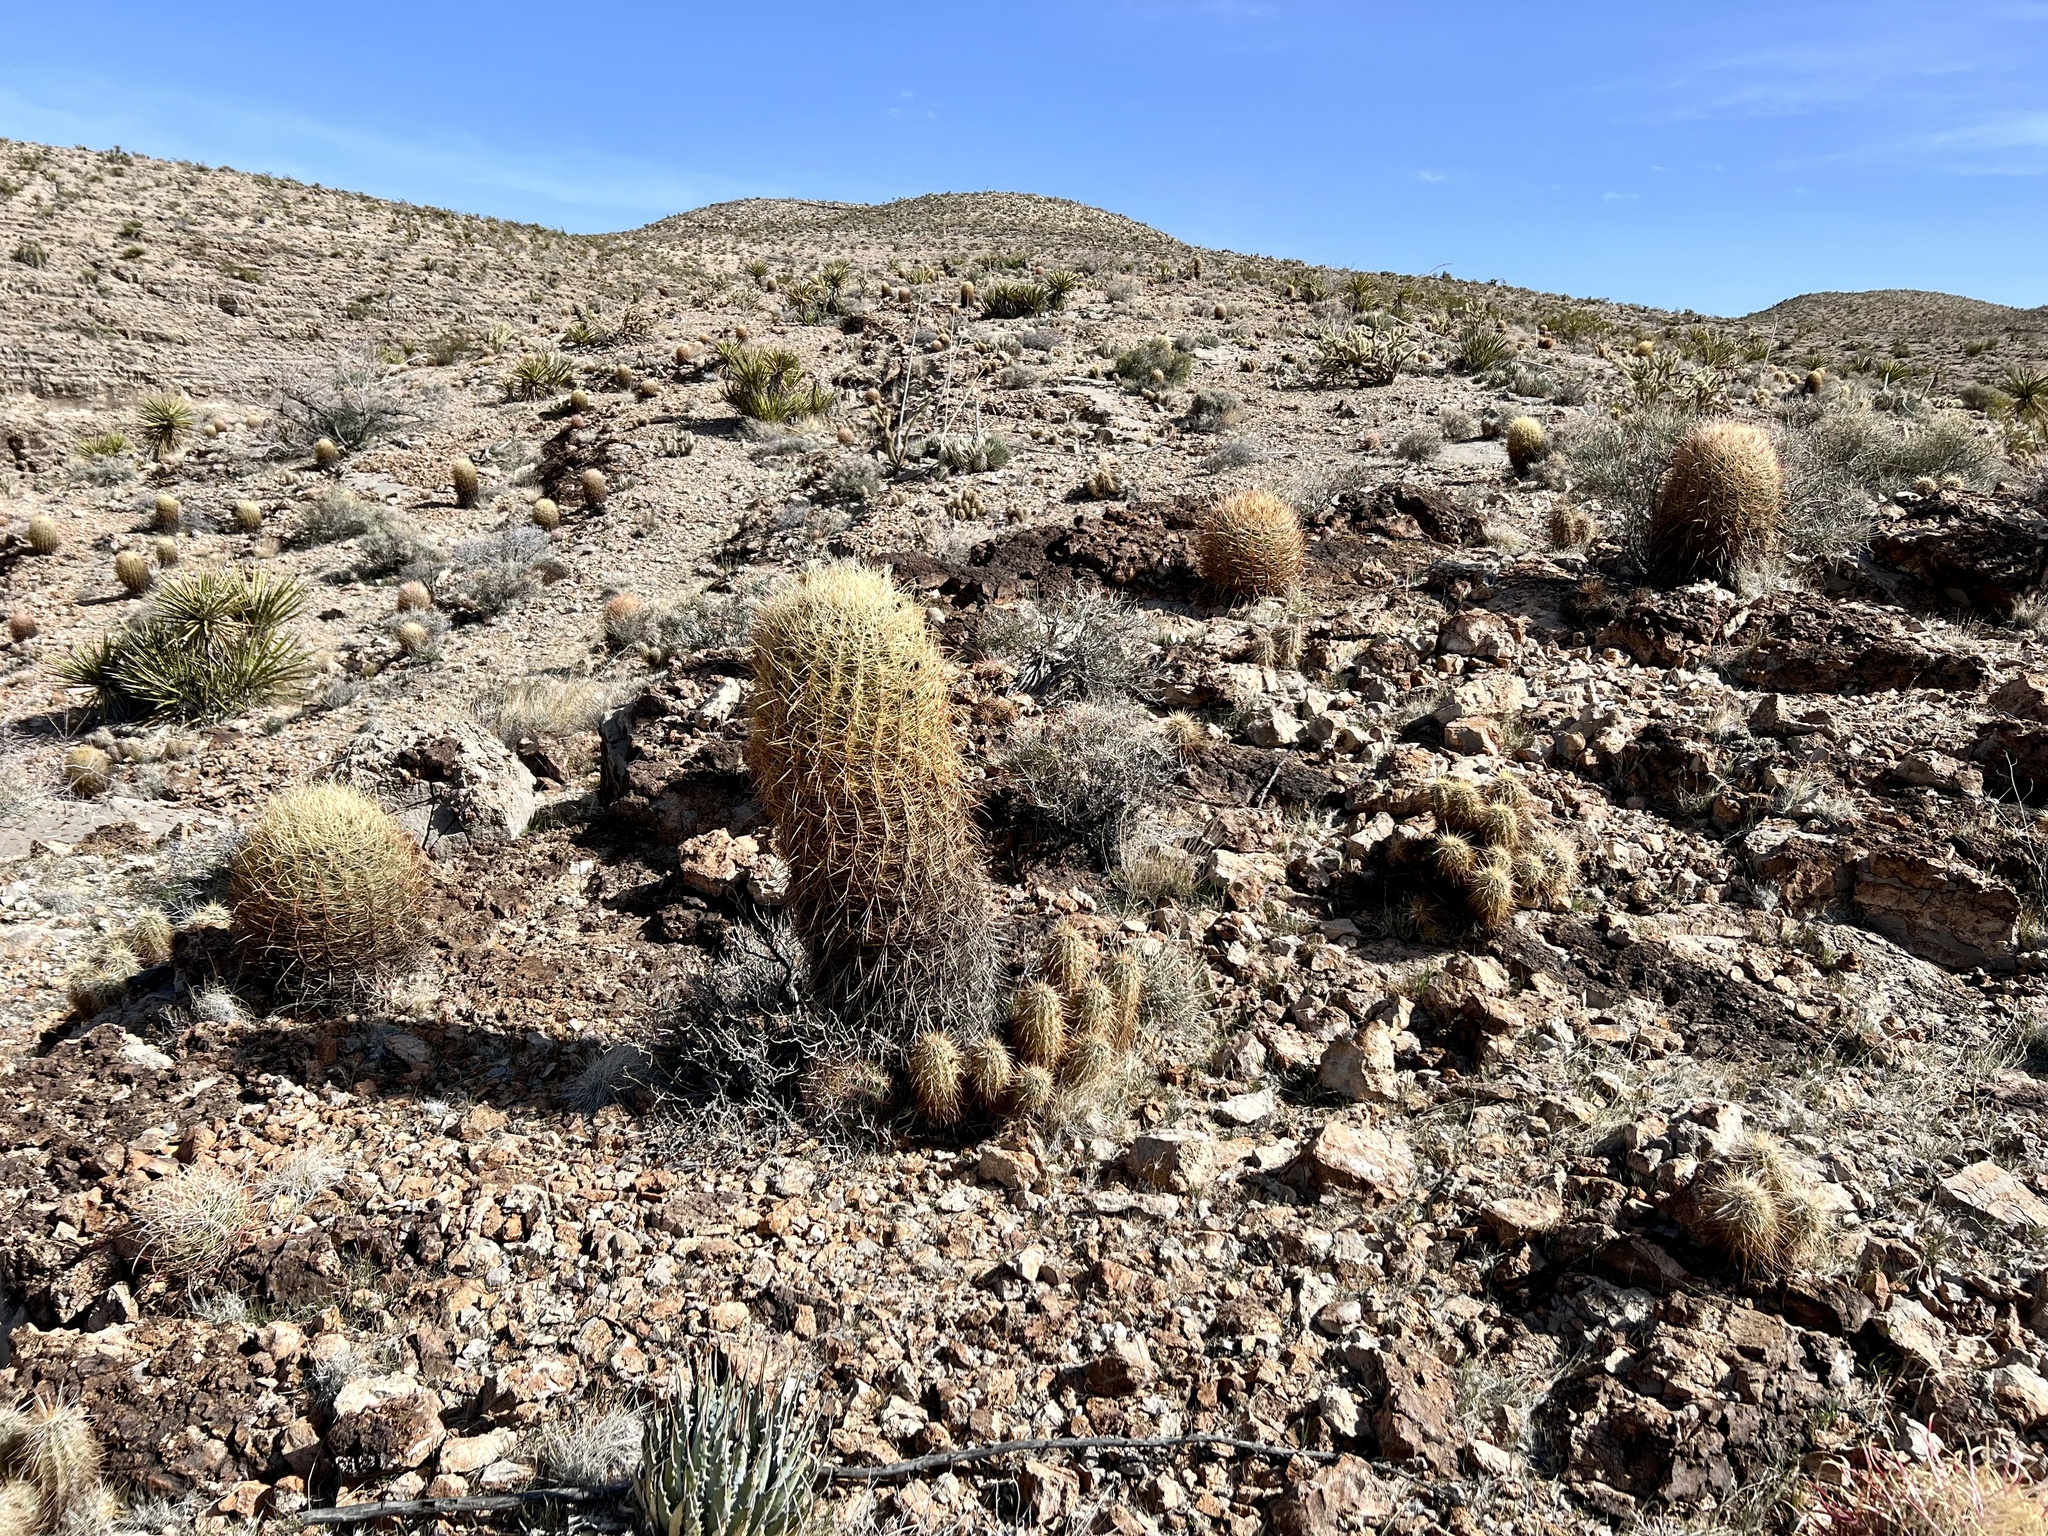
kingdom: Plantae
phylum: Tracheophyta
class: Magnoliopsida
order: Caryophyllales
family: Cactaceae
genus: Ferocactus
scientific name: Ferocactus cylindraceus
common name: California barrel cactus
